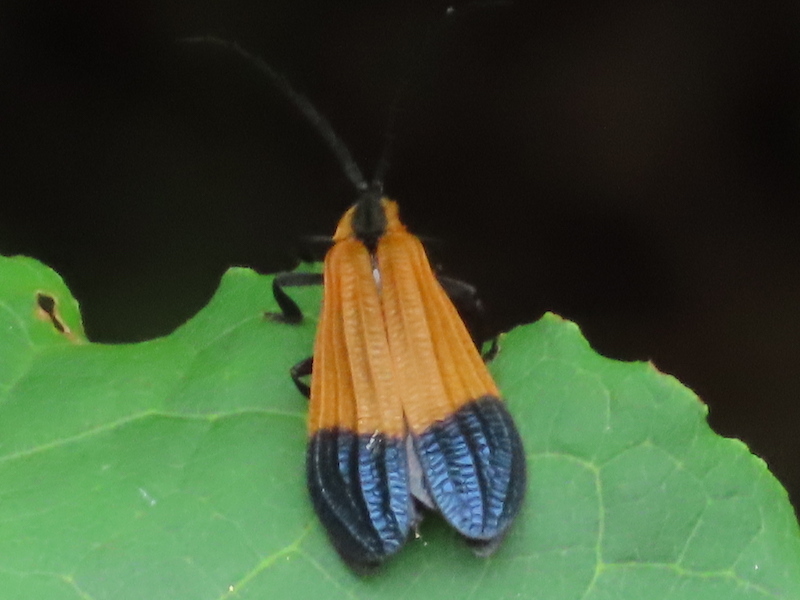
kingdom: Animalia
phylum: Arthropoda
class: Insecta
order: Coleoptera
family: Lycidae
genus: Calopteron
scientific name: Calopteron terminale
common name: End band net-winged beetle
